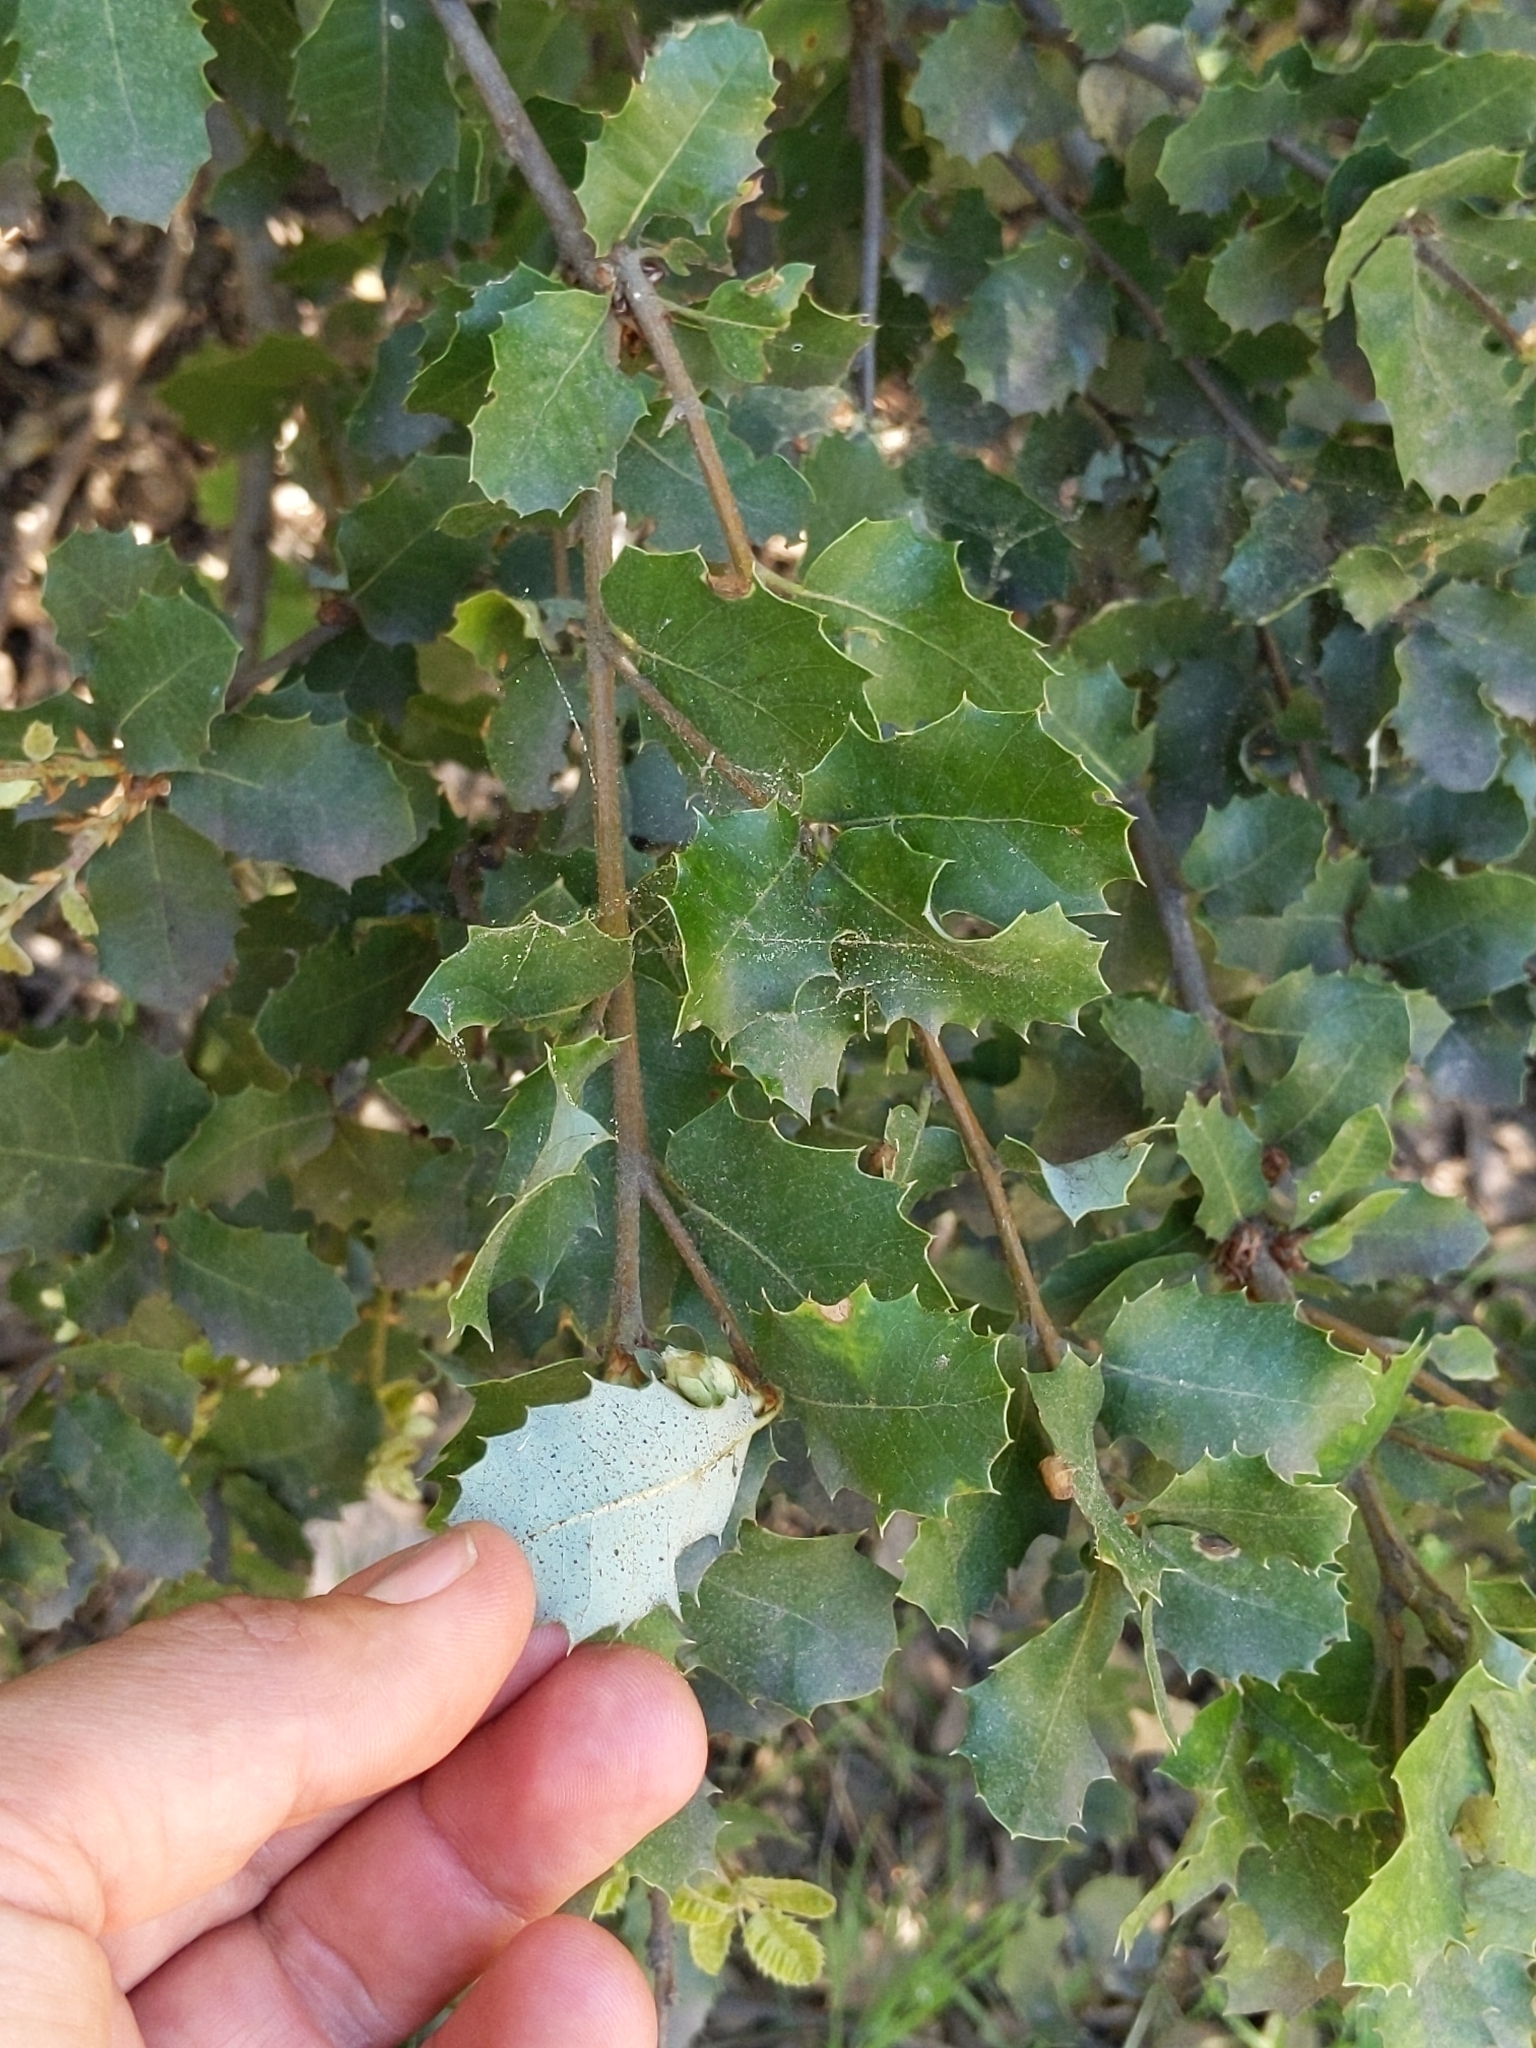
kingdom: Plantae
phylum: Tracheophyta
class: Magnoliopsida
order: Fagales
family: Fagaceae
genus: Quercus
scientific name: Quercus chrysolepis
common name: Canyon live oak
